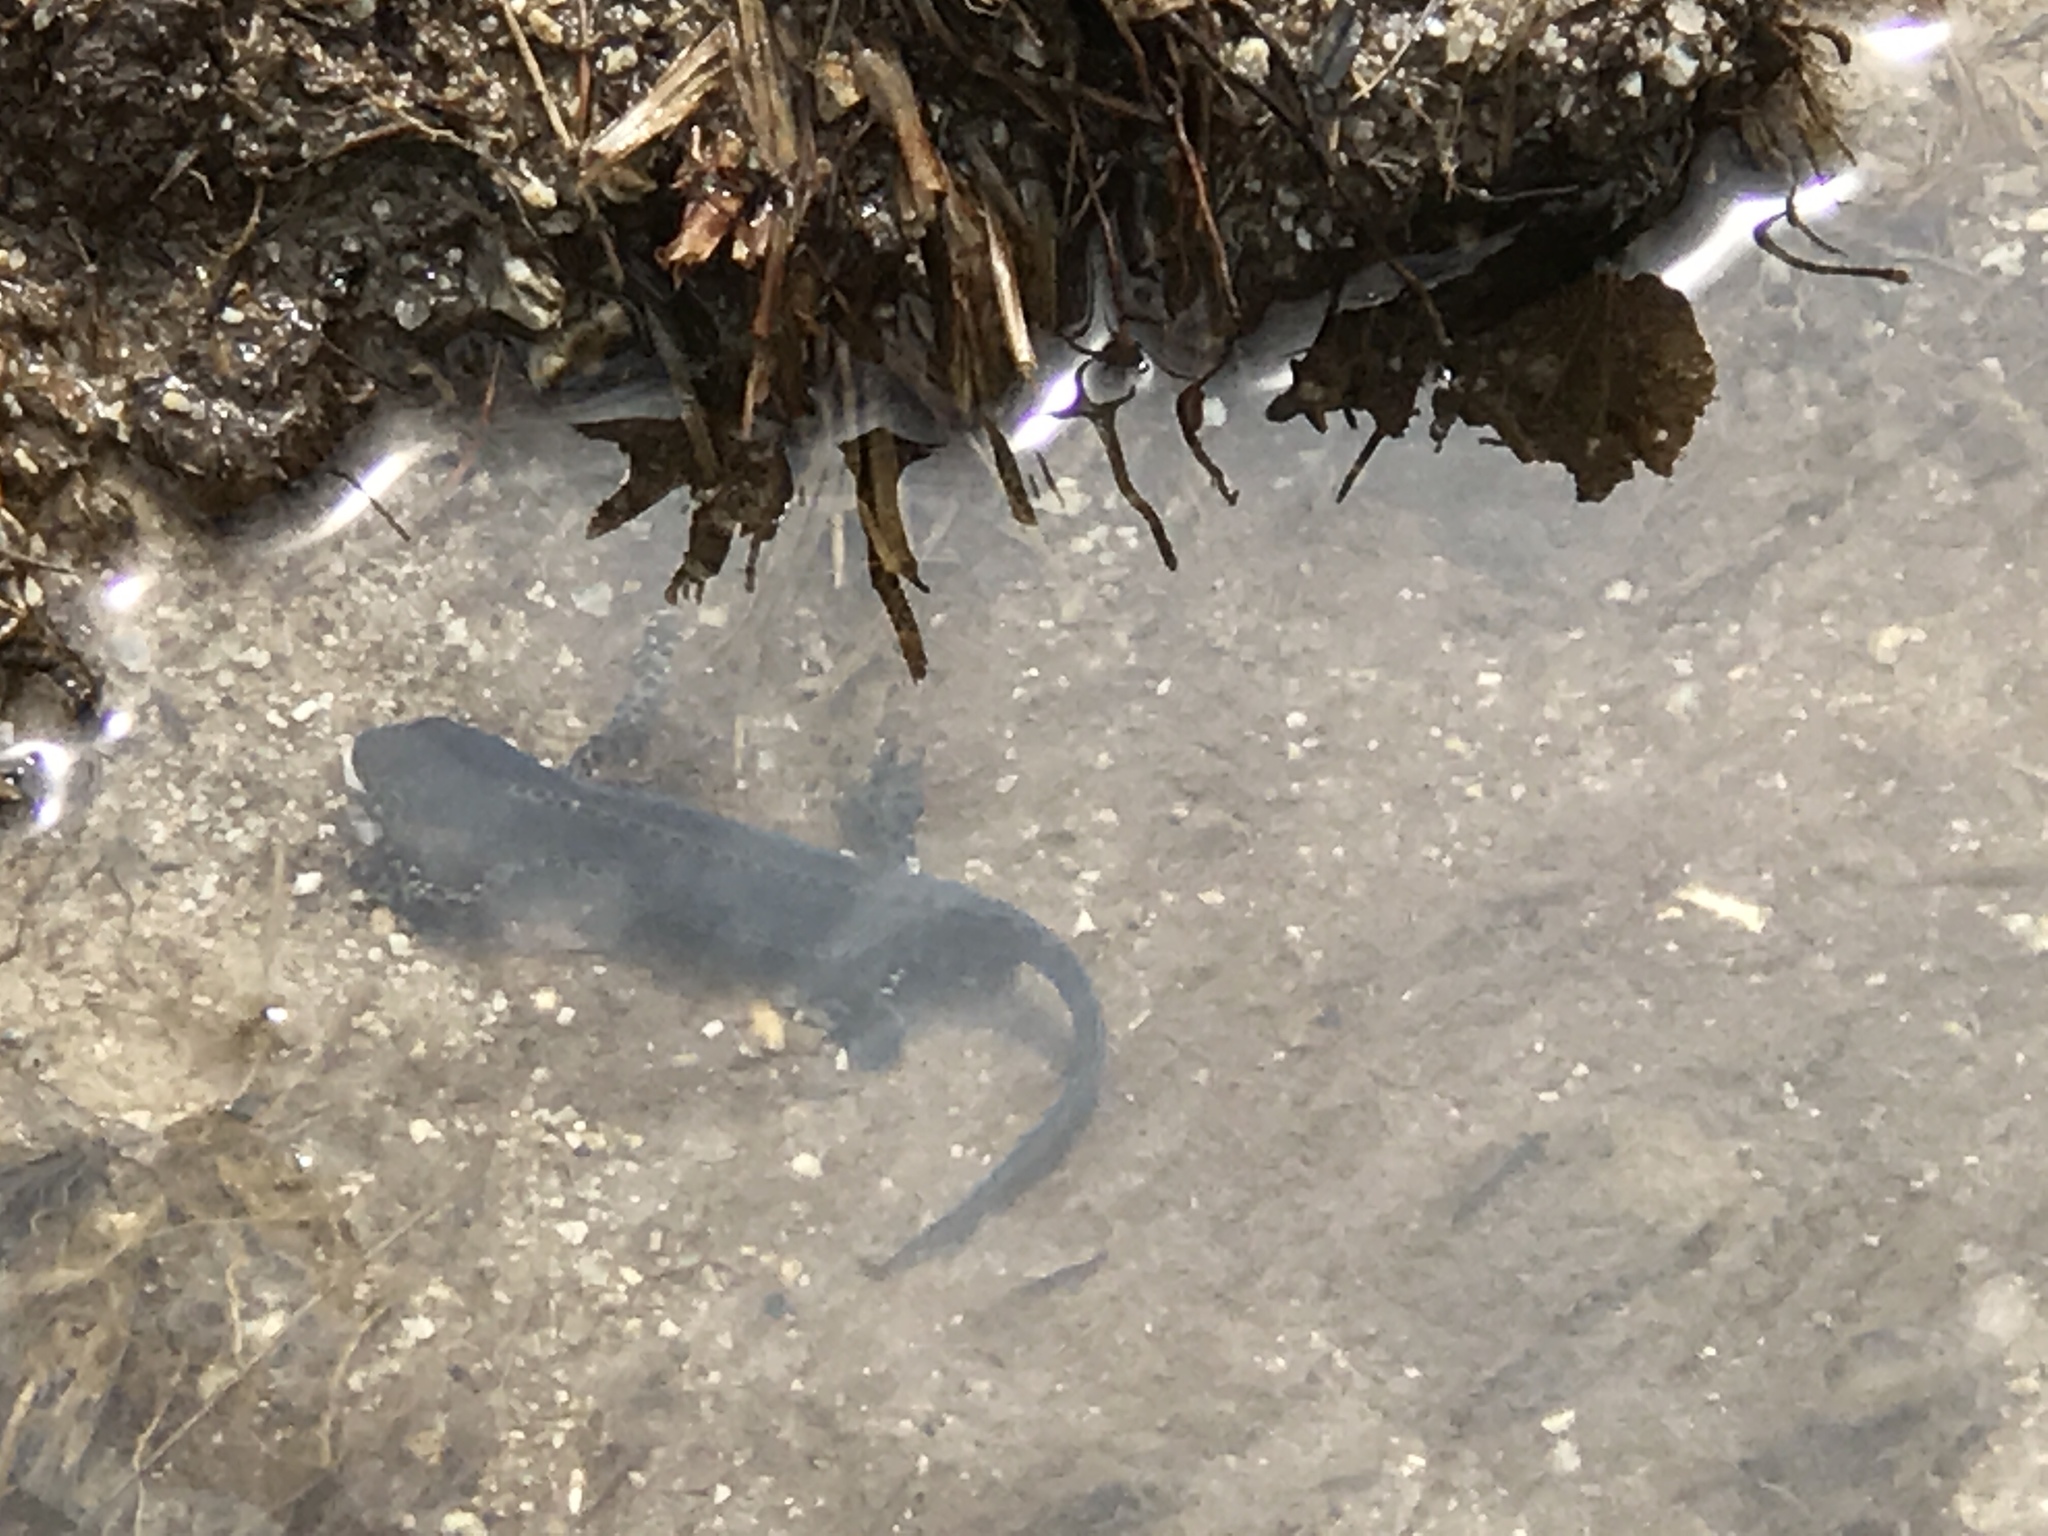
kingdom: Animalia
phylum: Chordata
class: Amphibia
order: Caudata
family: Salamandridae
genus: Ichthyosaura
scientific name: Ichthyosaura alpestris
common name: Alpine newt
